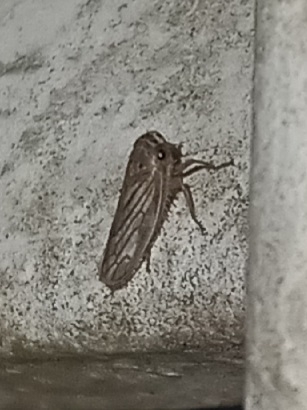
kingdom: Animalia
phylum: Arthropoda
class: Insecta
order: Hemiptera
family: Cicadellidae
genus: Exitianus
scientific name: Exitianus exitiosus
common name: Gray lawn leafhopper
